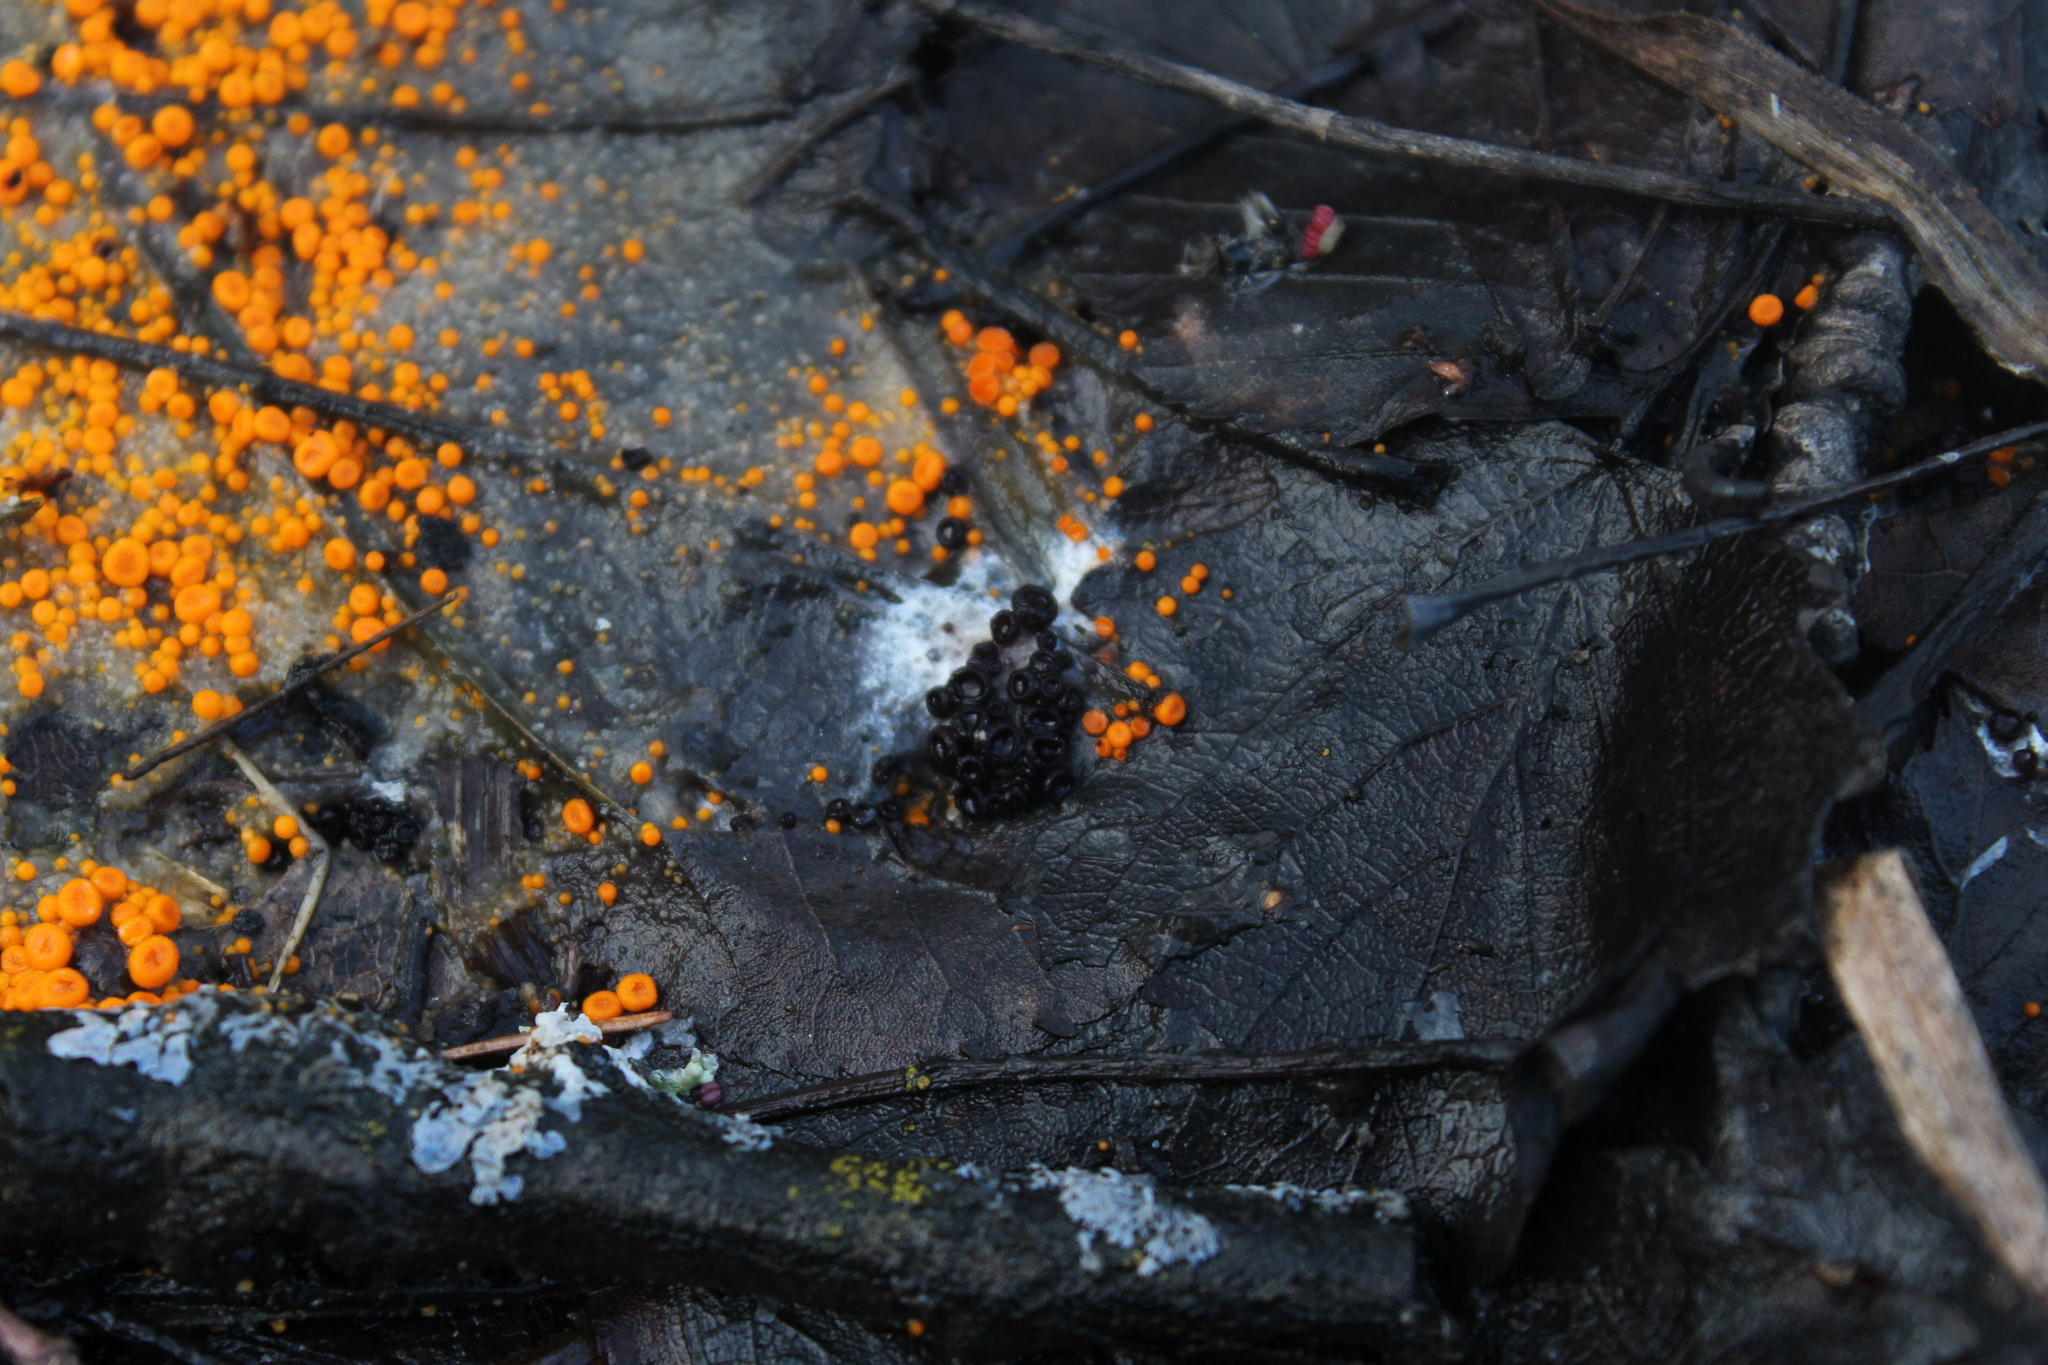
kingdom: Fungi
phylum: Ascomycota
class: Pezizomycetes
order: Pezizales
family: Pseudombrophilaceae
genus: Pseudombrophila
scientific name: Pseudombrophila guldeniae
